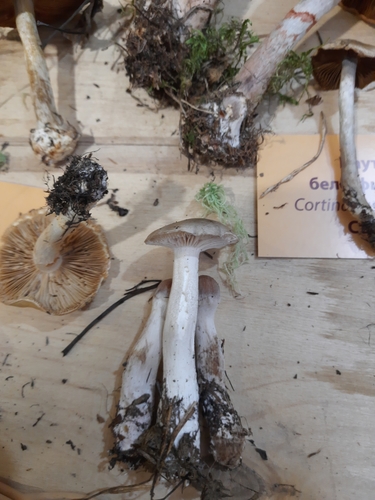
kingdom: Fungi
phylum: Basidiomycota
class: Agaricomycetes
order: Agaricales
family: Cortinariaceae
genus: Cortinarius
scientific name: Cortinarius
